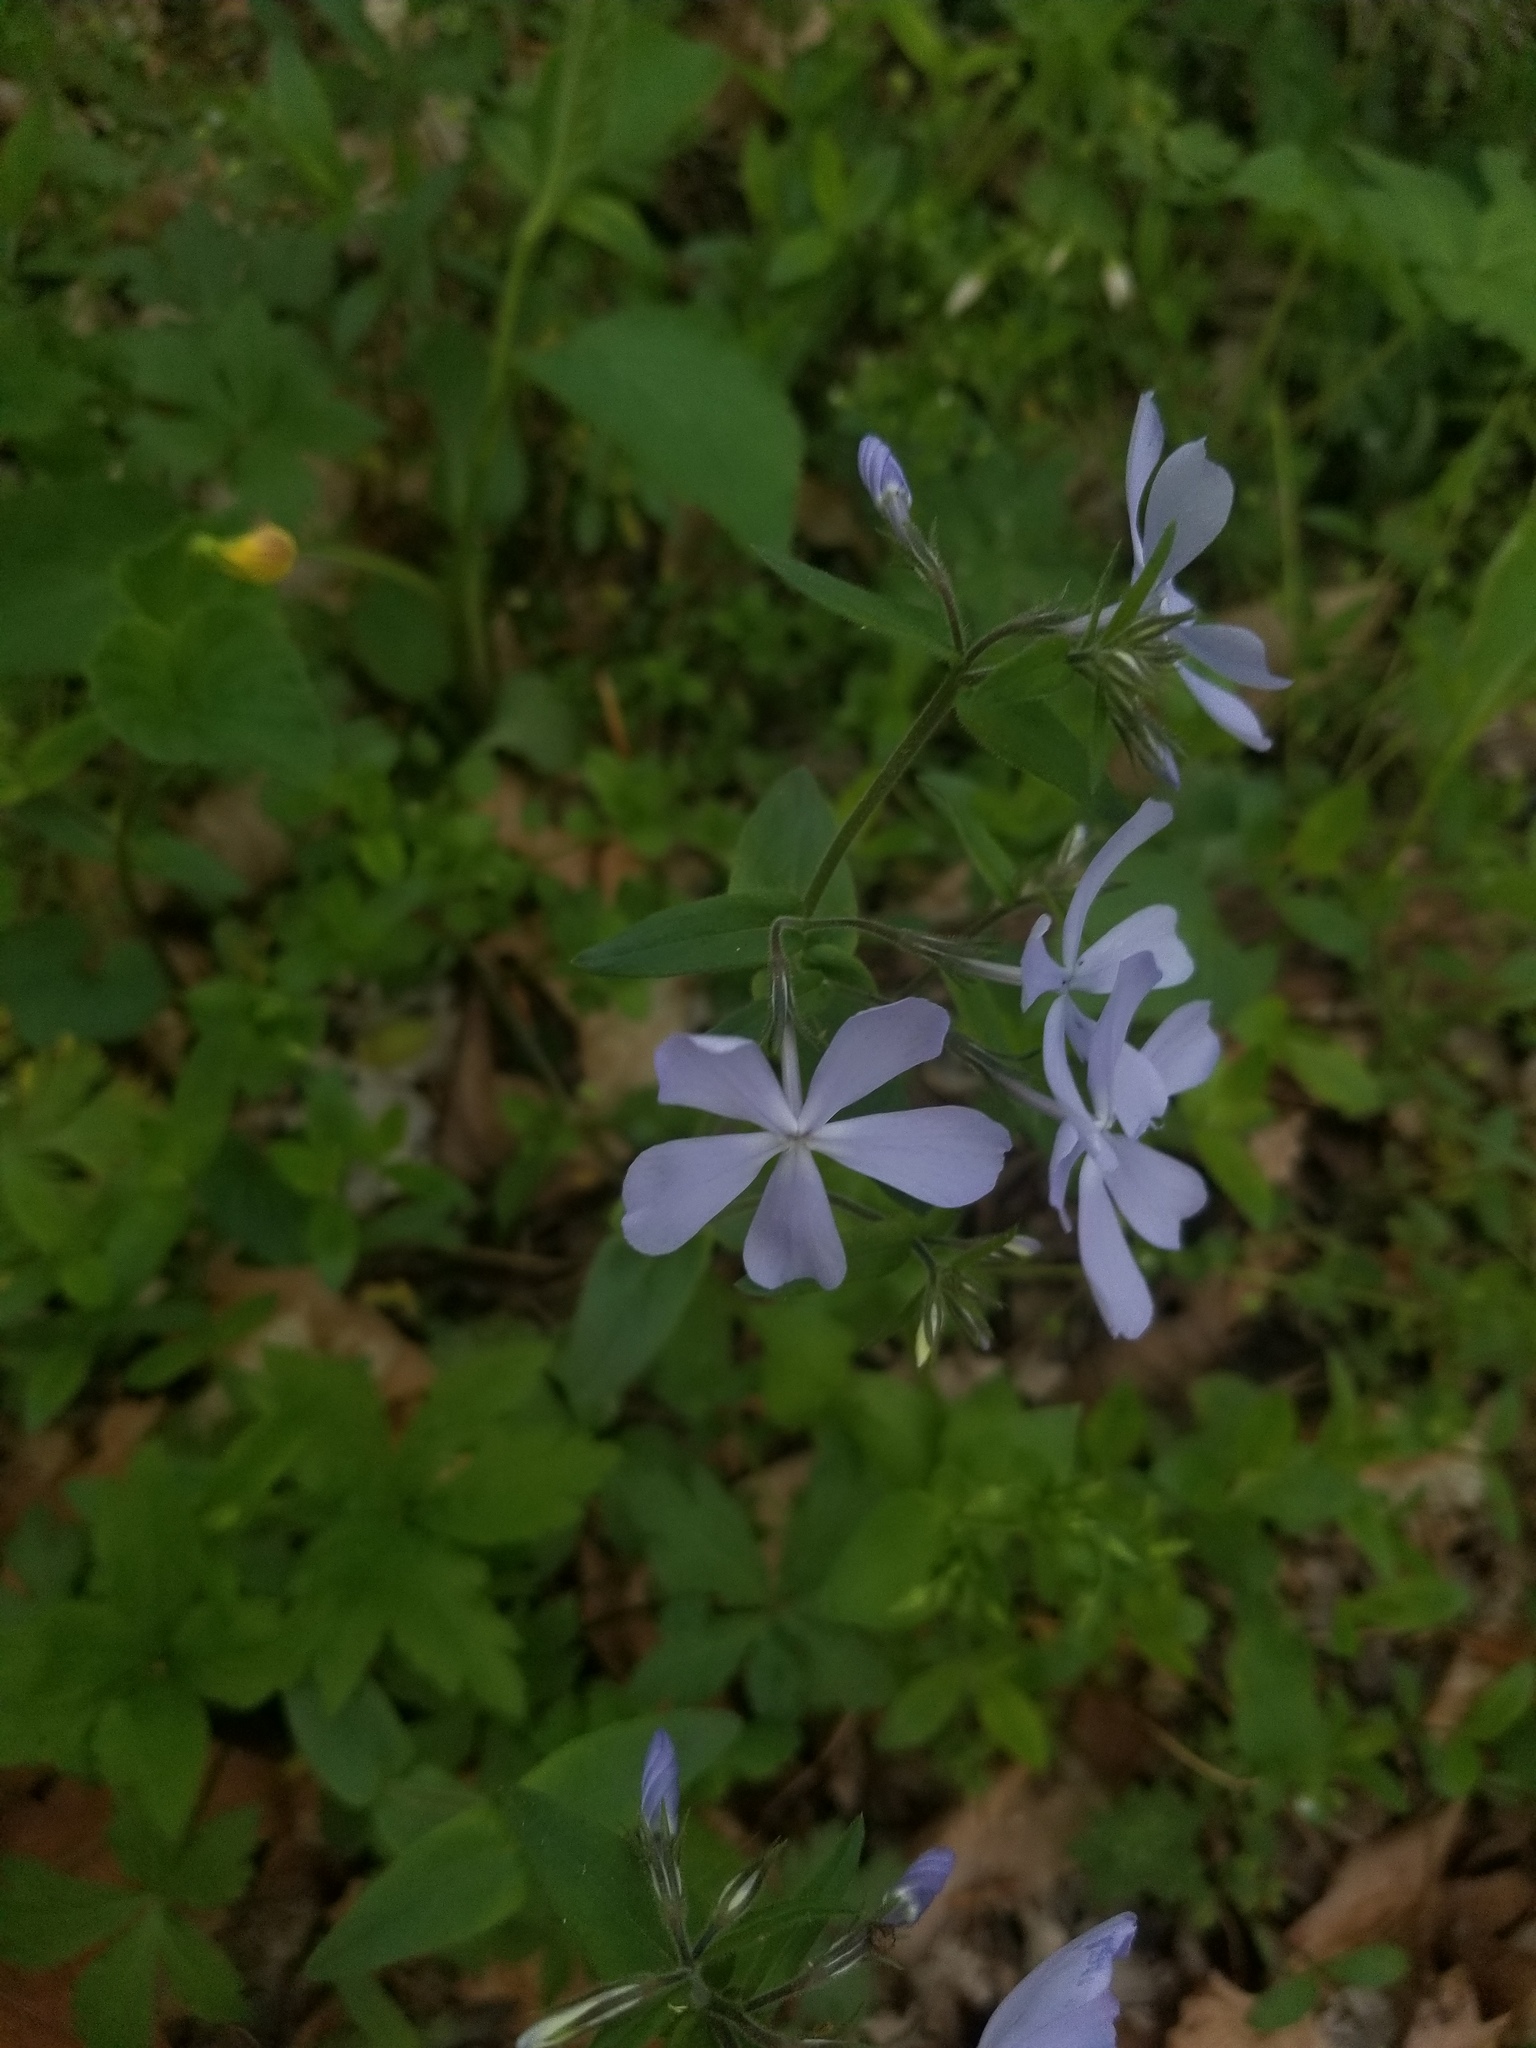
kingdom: Plantae
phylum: Tracheophyta
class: Magnoliopsida
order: Ericales
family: Polemoniaceae
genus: Phlox
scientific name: Phlox divaricata
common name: Blue phlox
